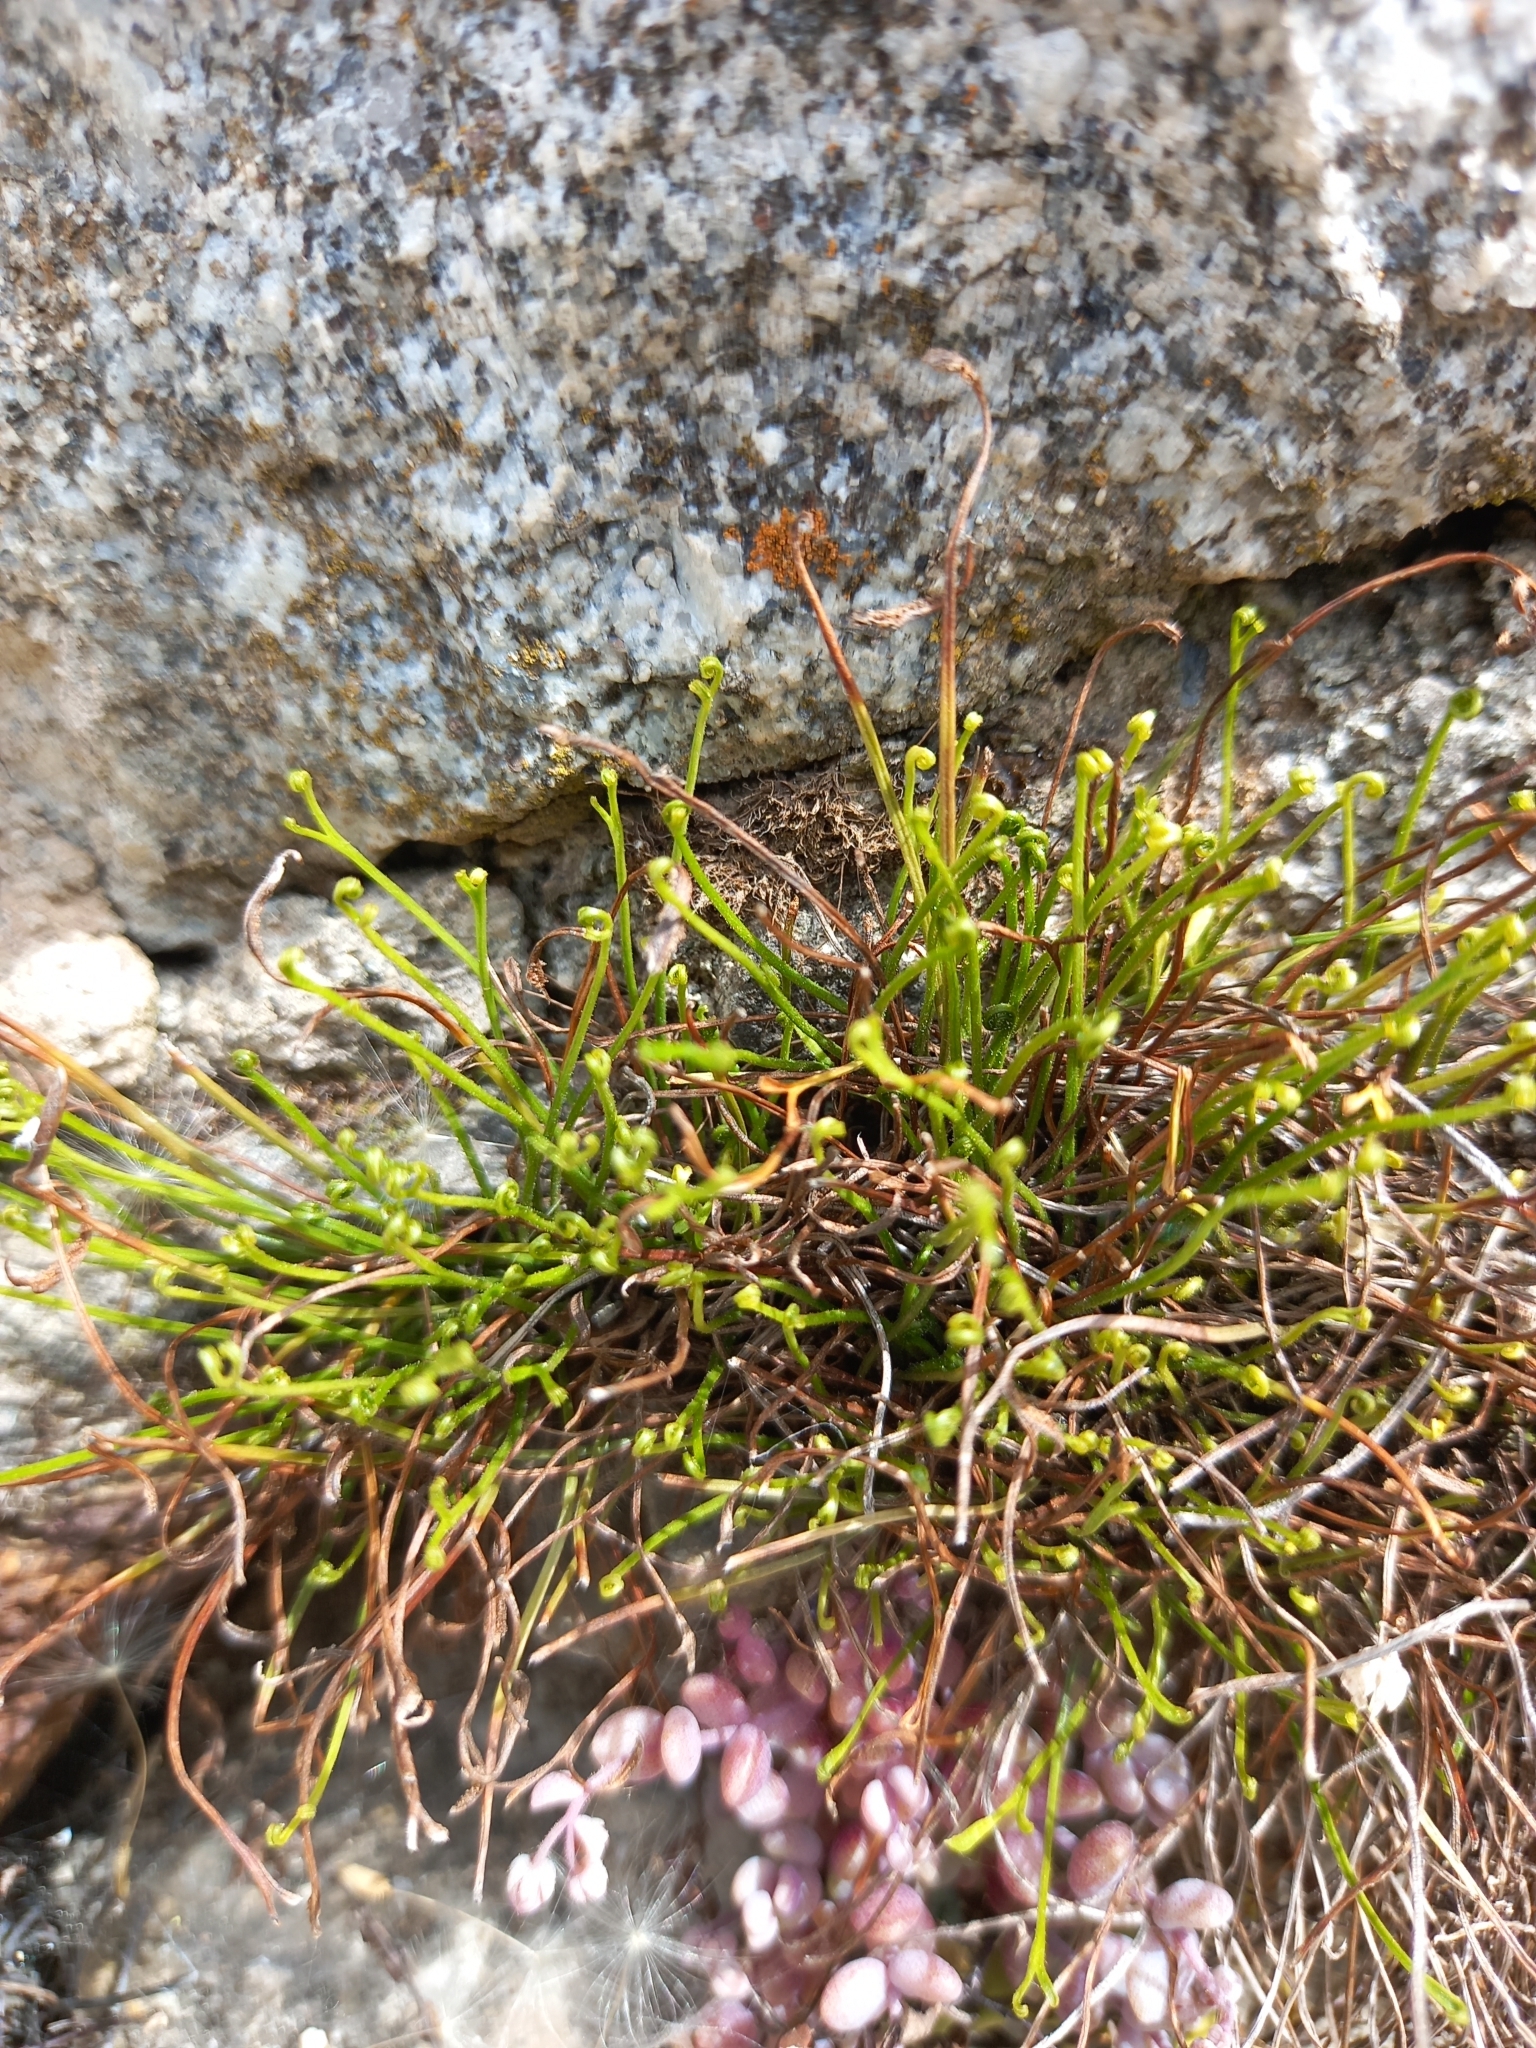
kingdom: Plantae
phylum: Tracheophyta
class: Polypodiopsida
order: Polypodiales
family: Aspleniaceae
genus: Asplenium
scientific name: Asplenium septentrionale
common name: Forked spleenwort
